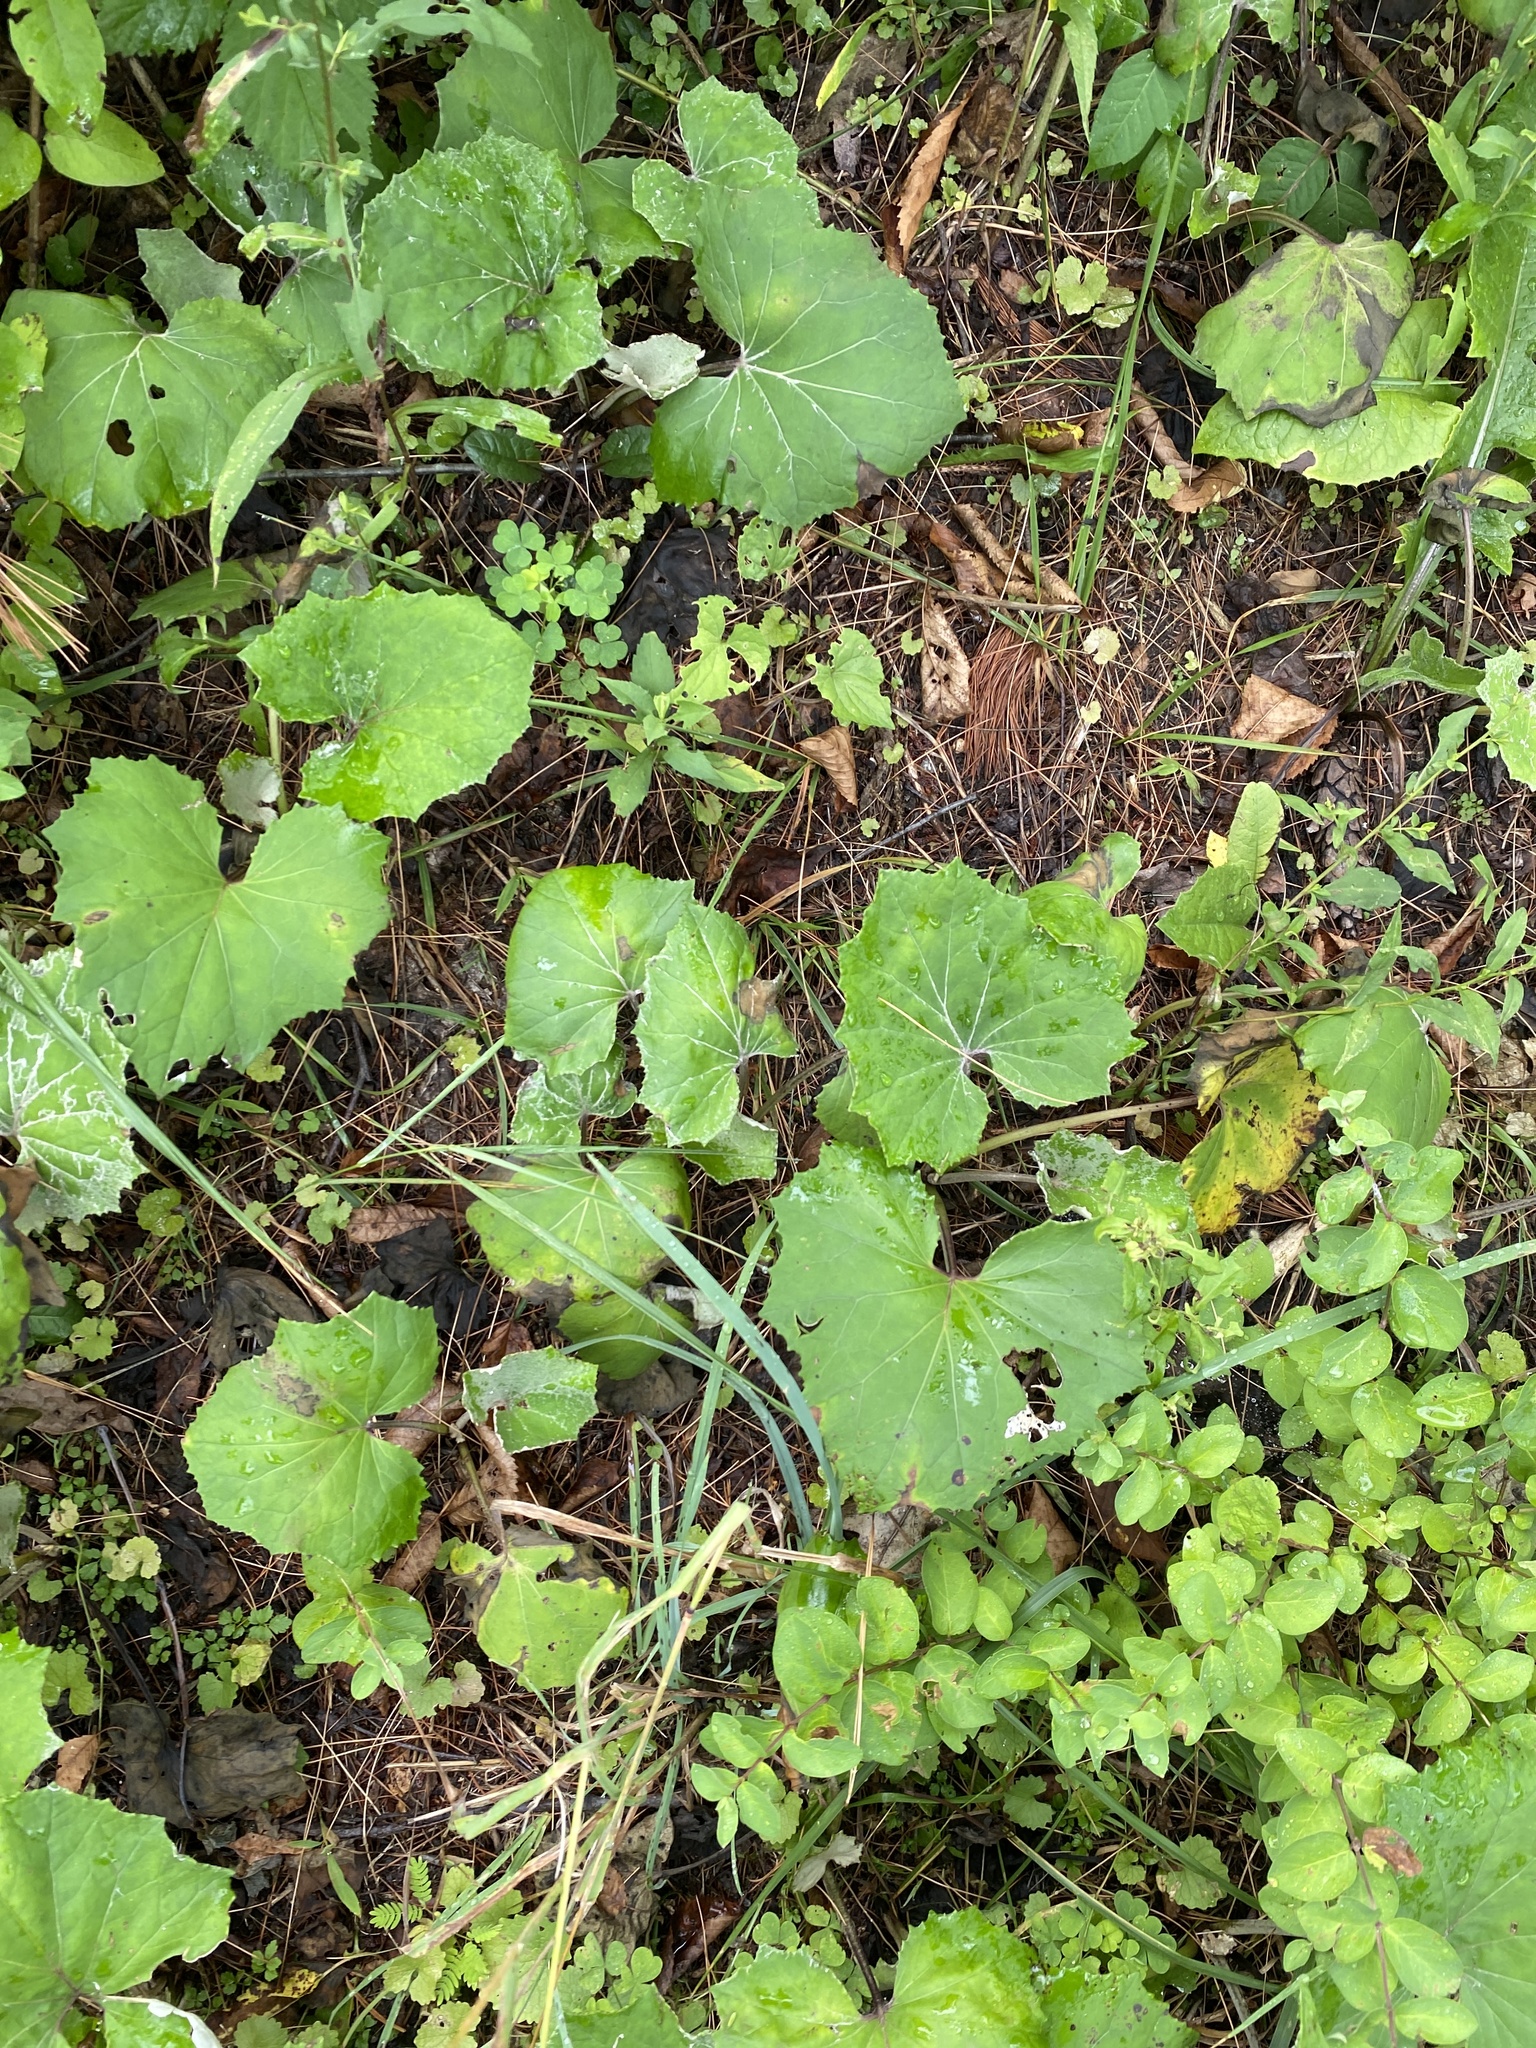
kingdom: Plantae
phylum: Tracheophyta
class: Magnoliopsida
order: Asterales
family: Asteraceae
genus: Tussilago
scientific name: Tussilago farfara
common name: Coltsfoot
